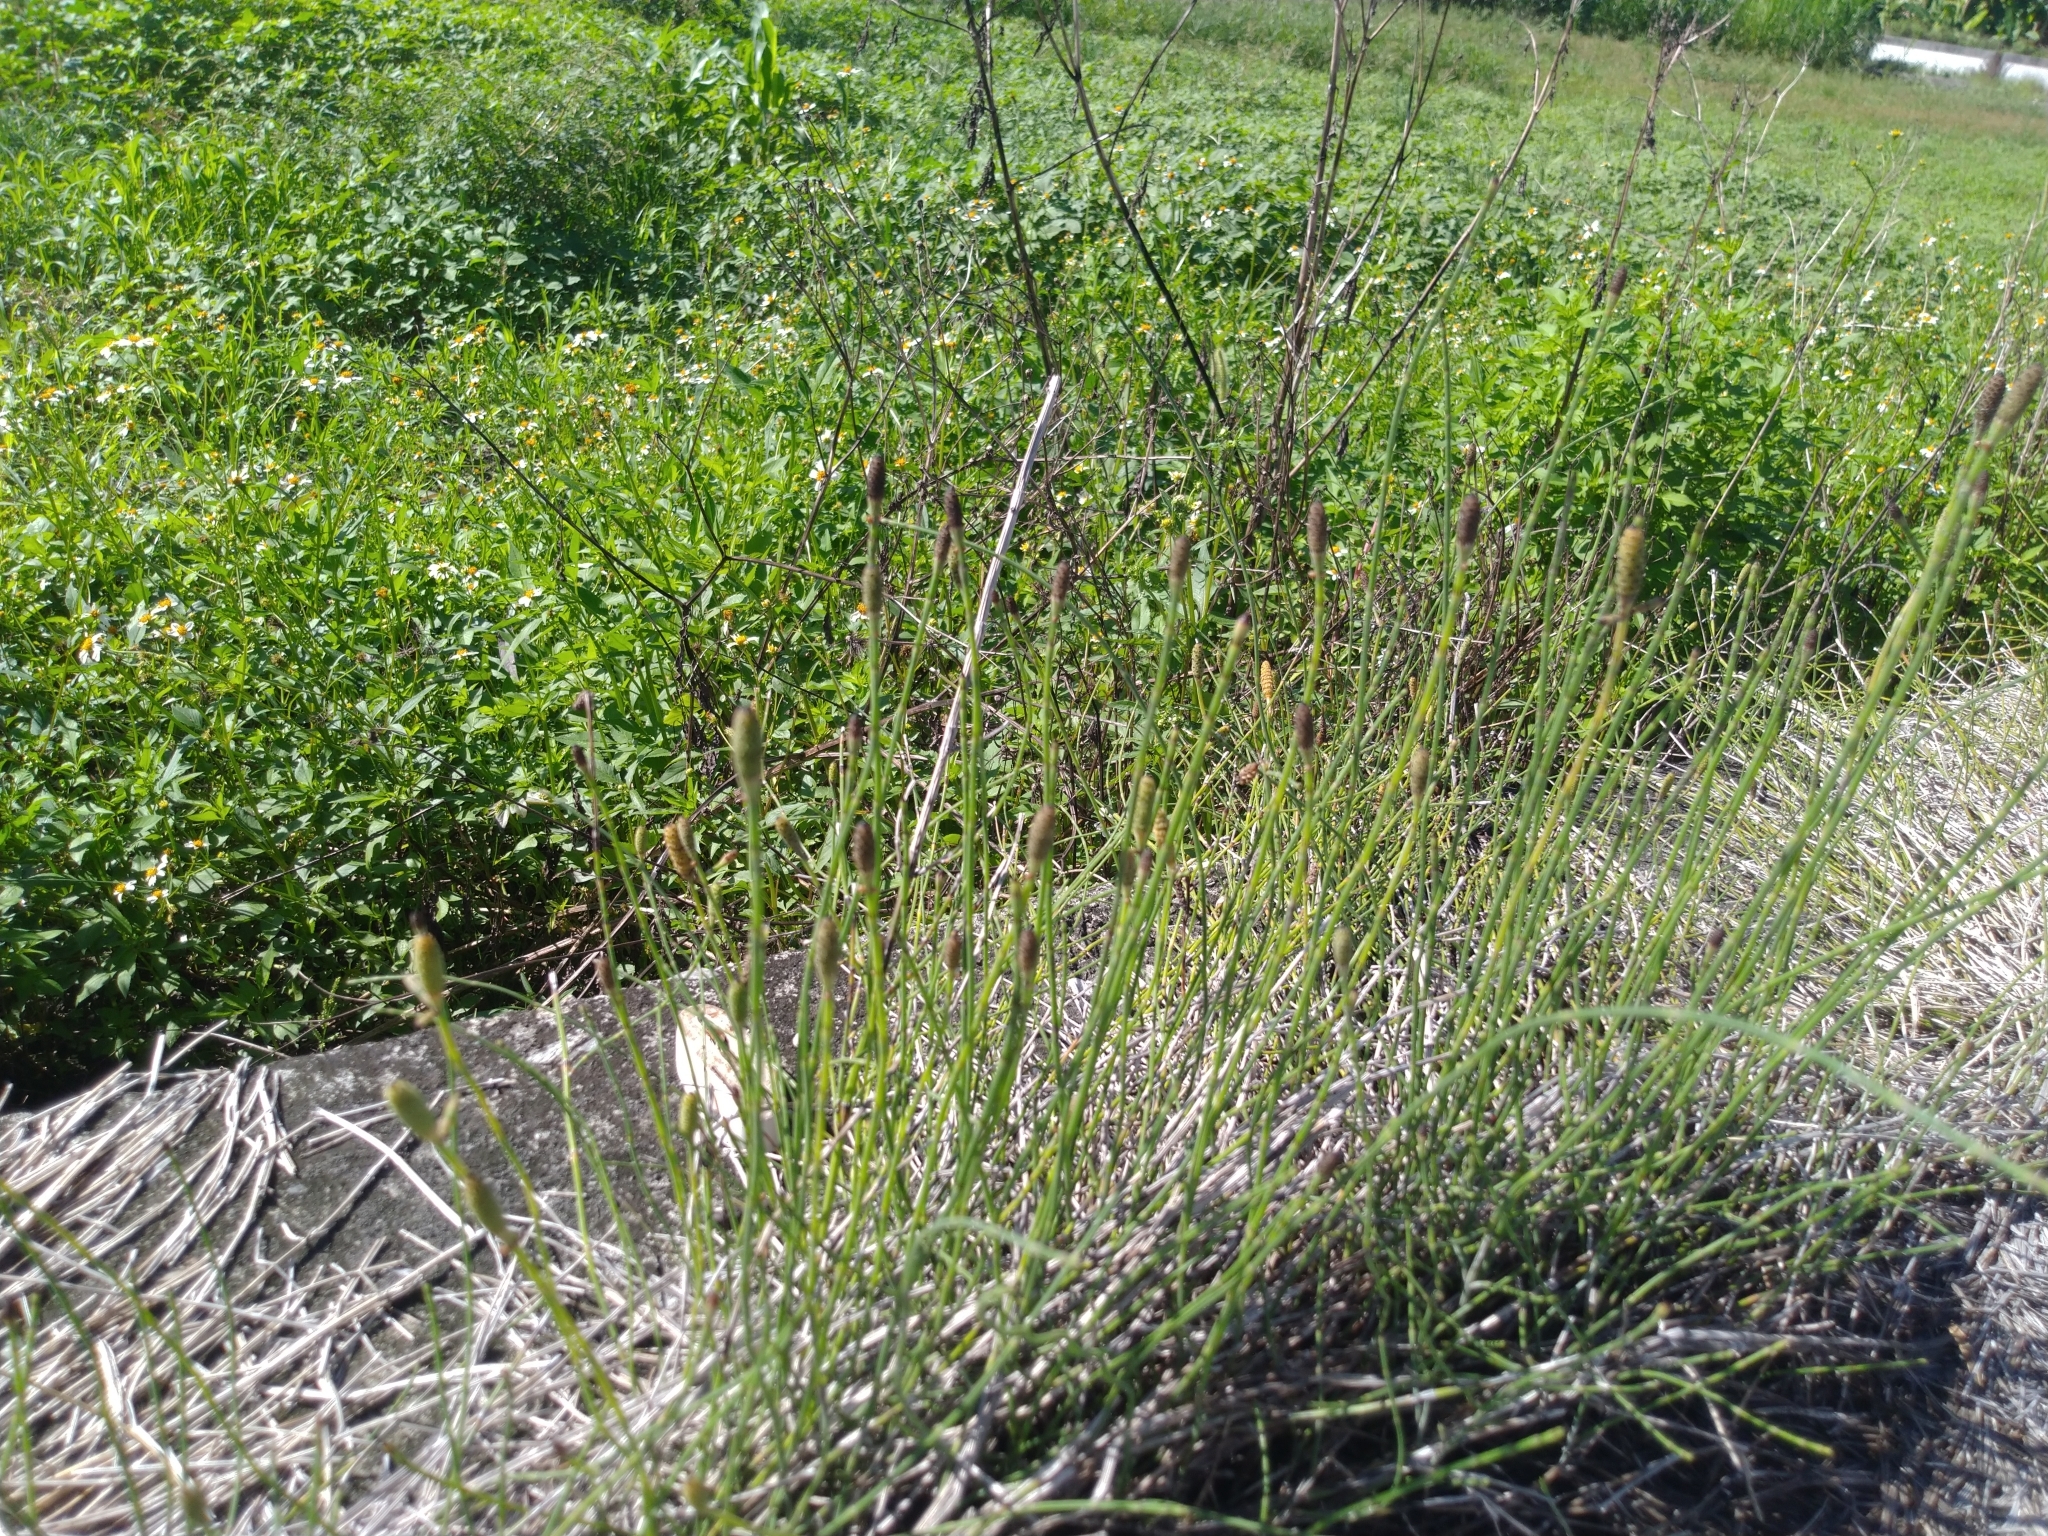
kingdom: Plantae
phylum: Tracheophyta
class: Polypodiopsida
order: Equisetales
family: Equisetaceae
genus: Equisetum
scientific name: Equisetum ramosissimum
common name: Branched horsetail
